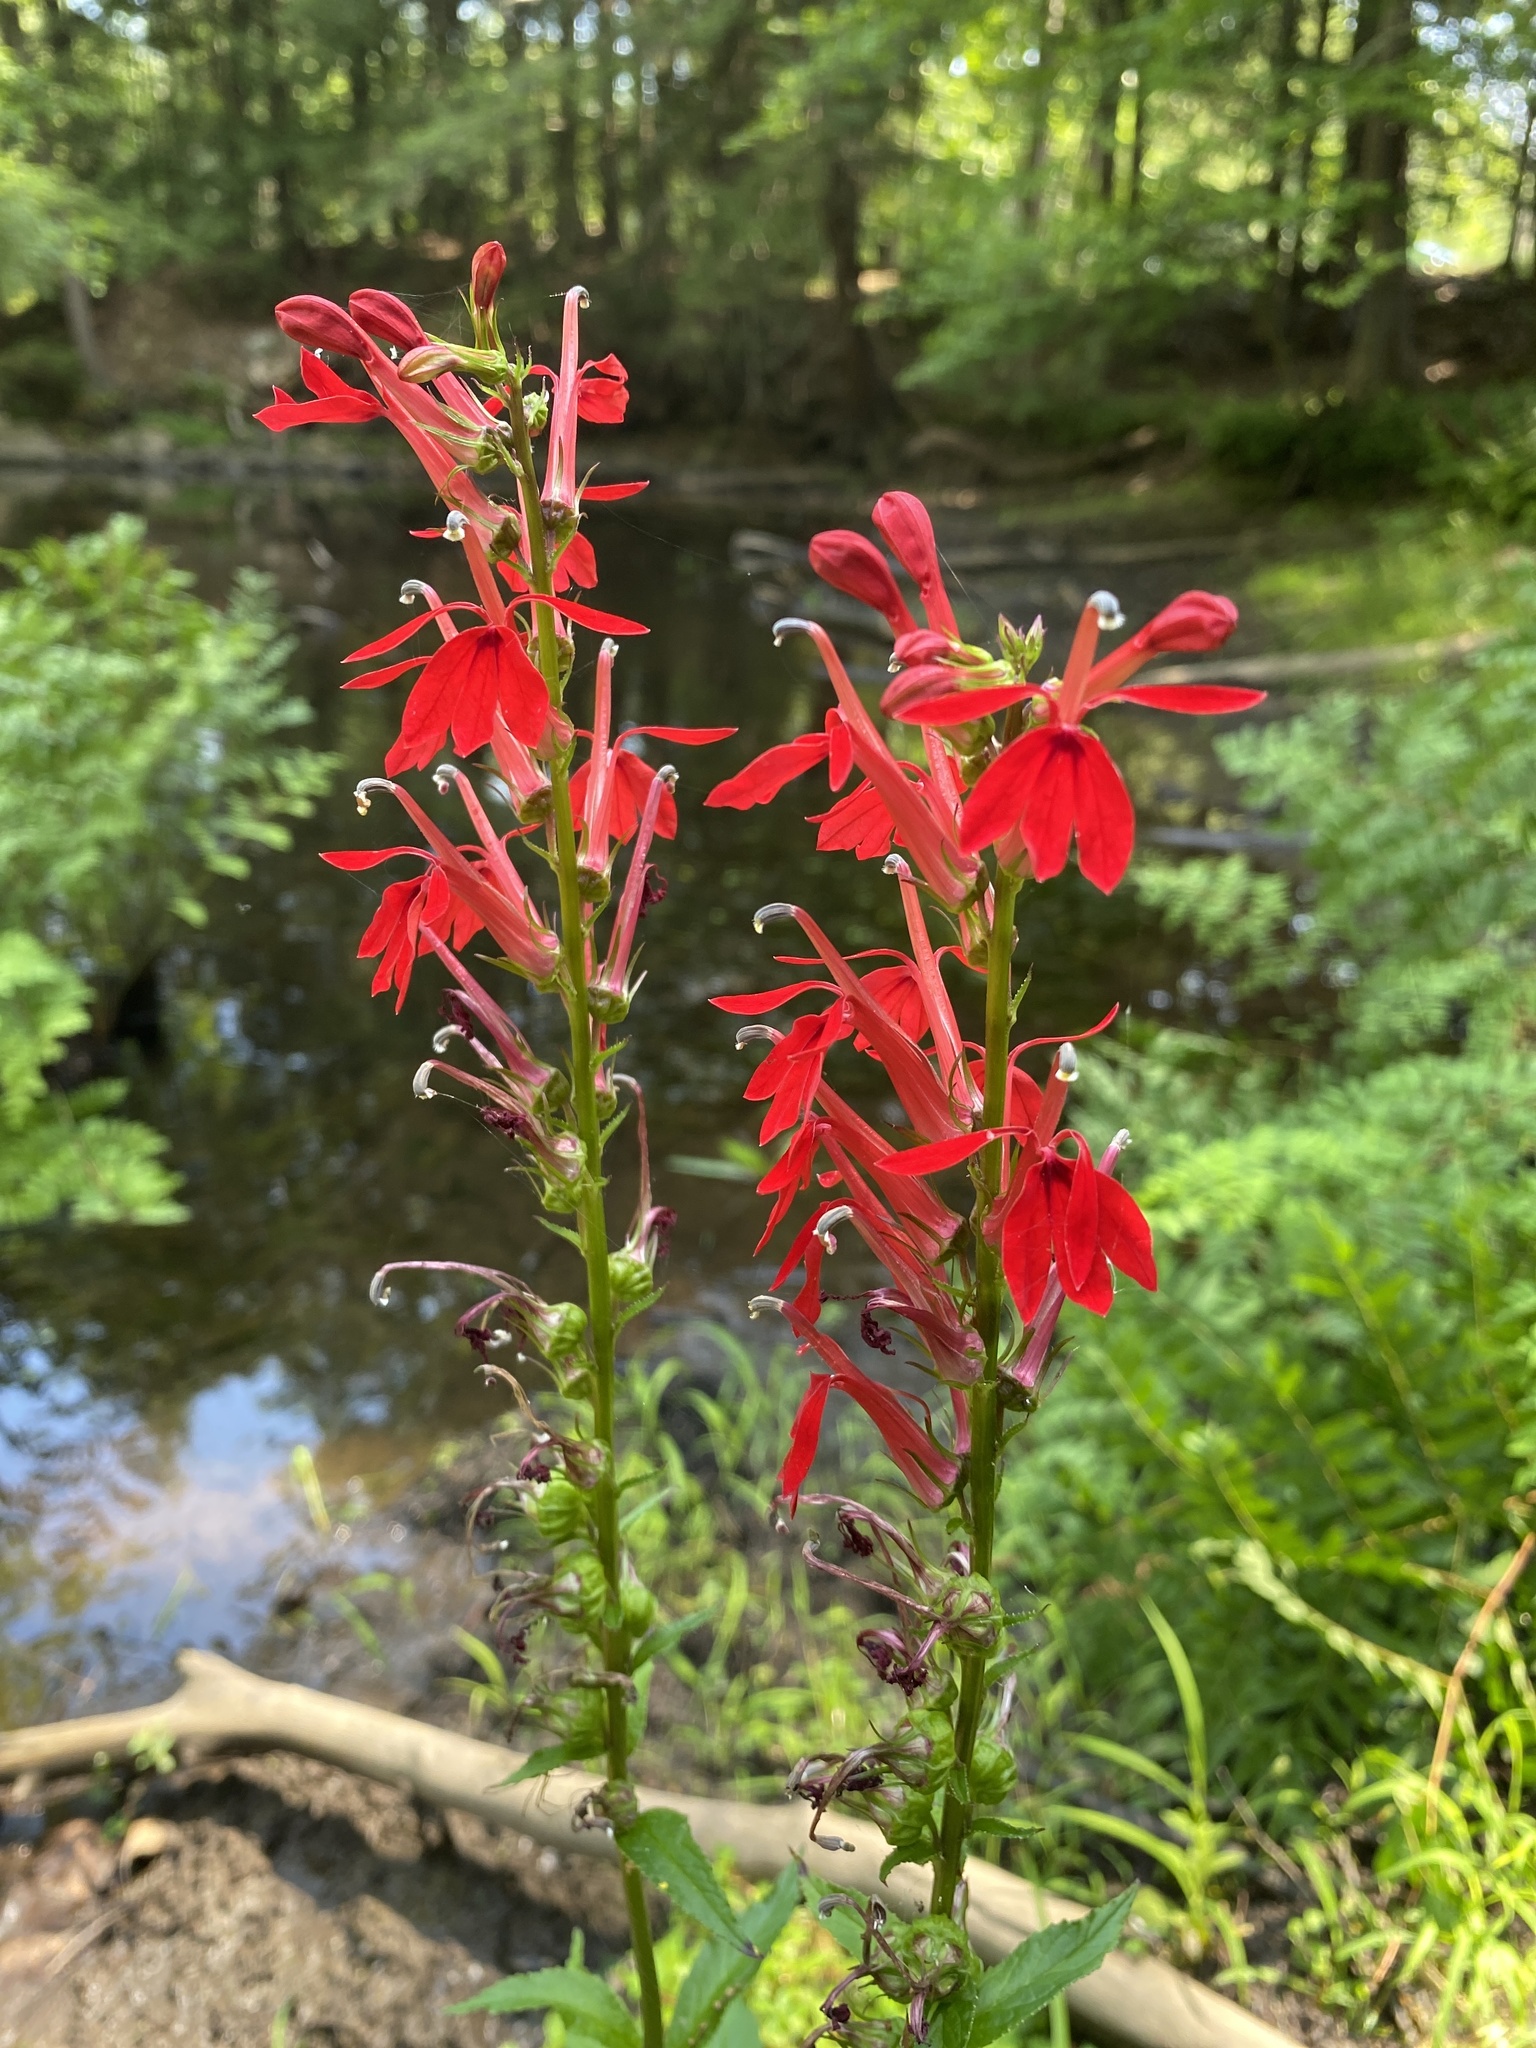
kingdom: Plantae
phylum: Tracheophyta
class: Magnoliopsida
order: Asterales
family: Campanulaceae
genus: Lobelia
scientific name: Lobelia cardinalis
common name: Cardinal flower
